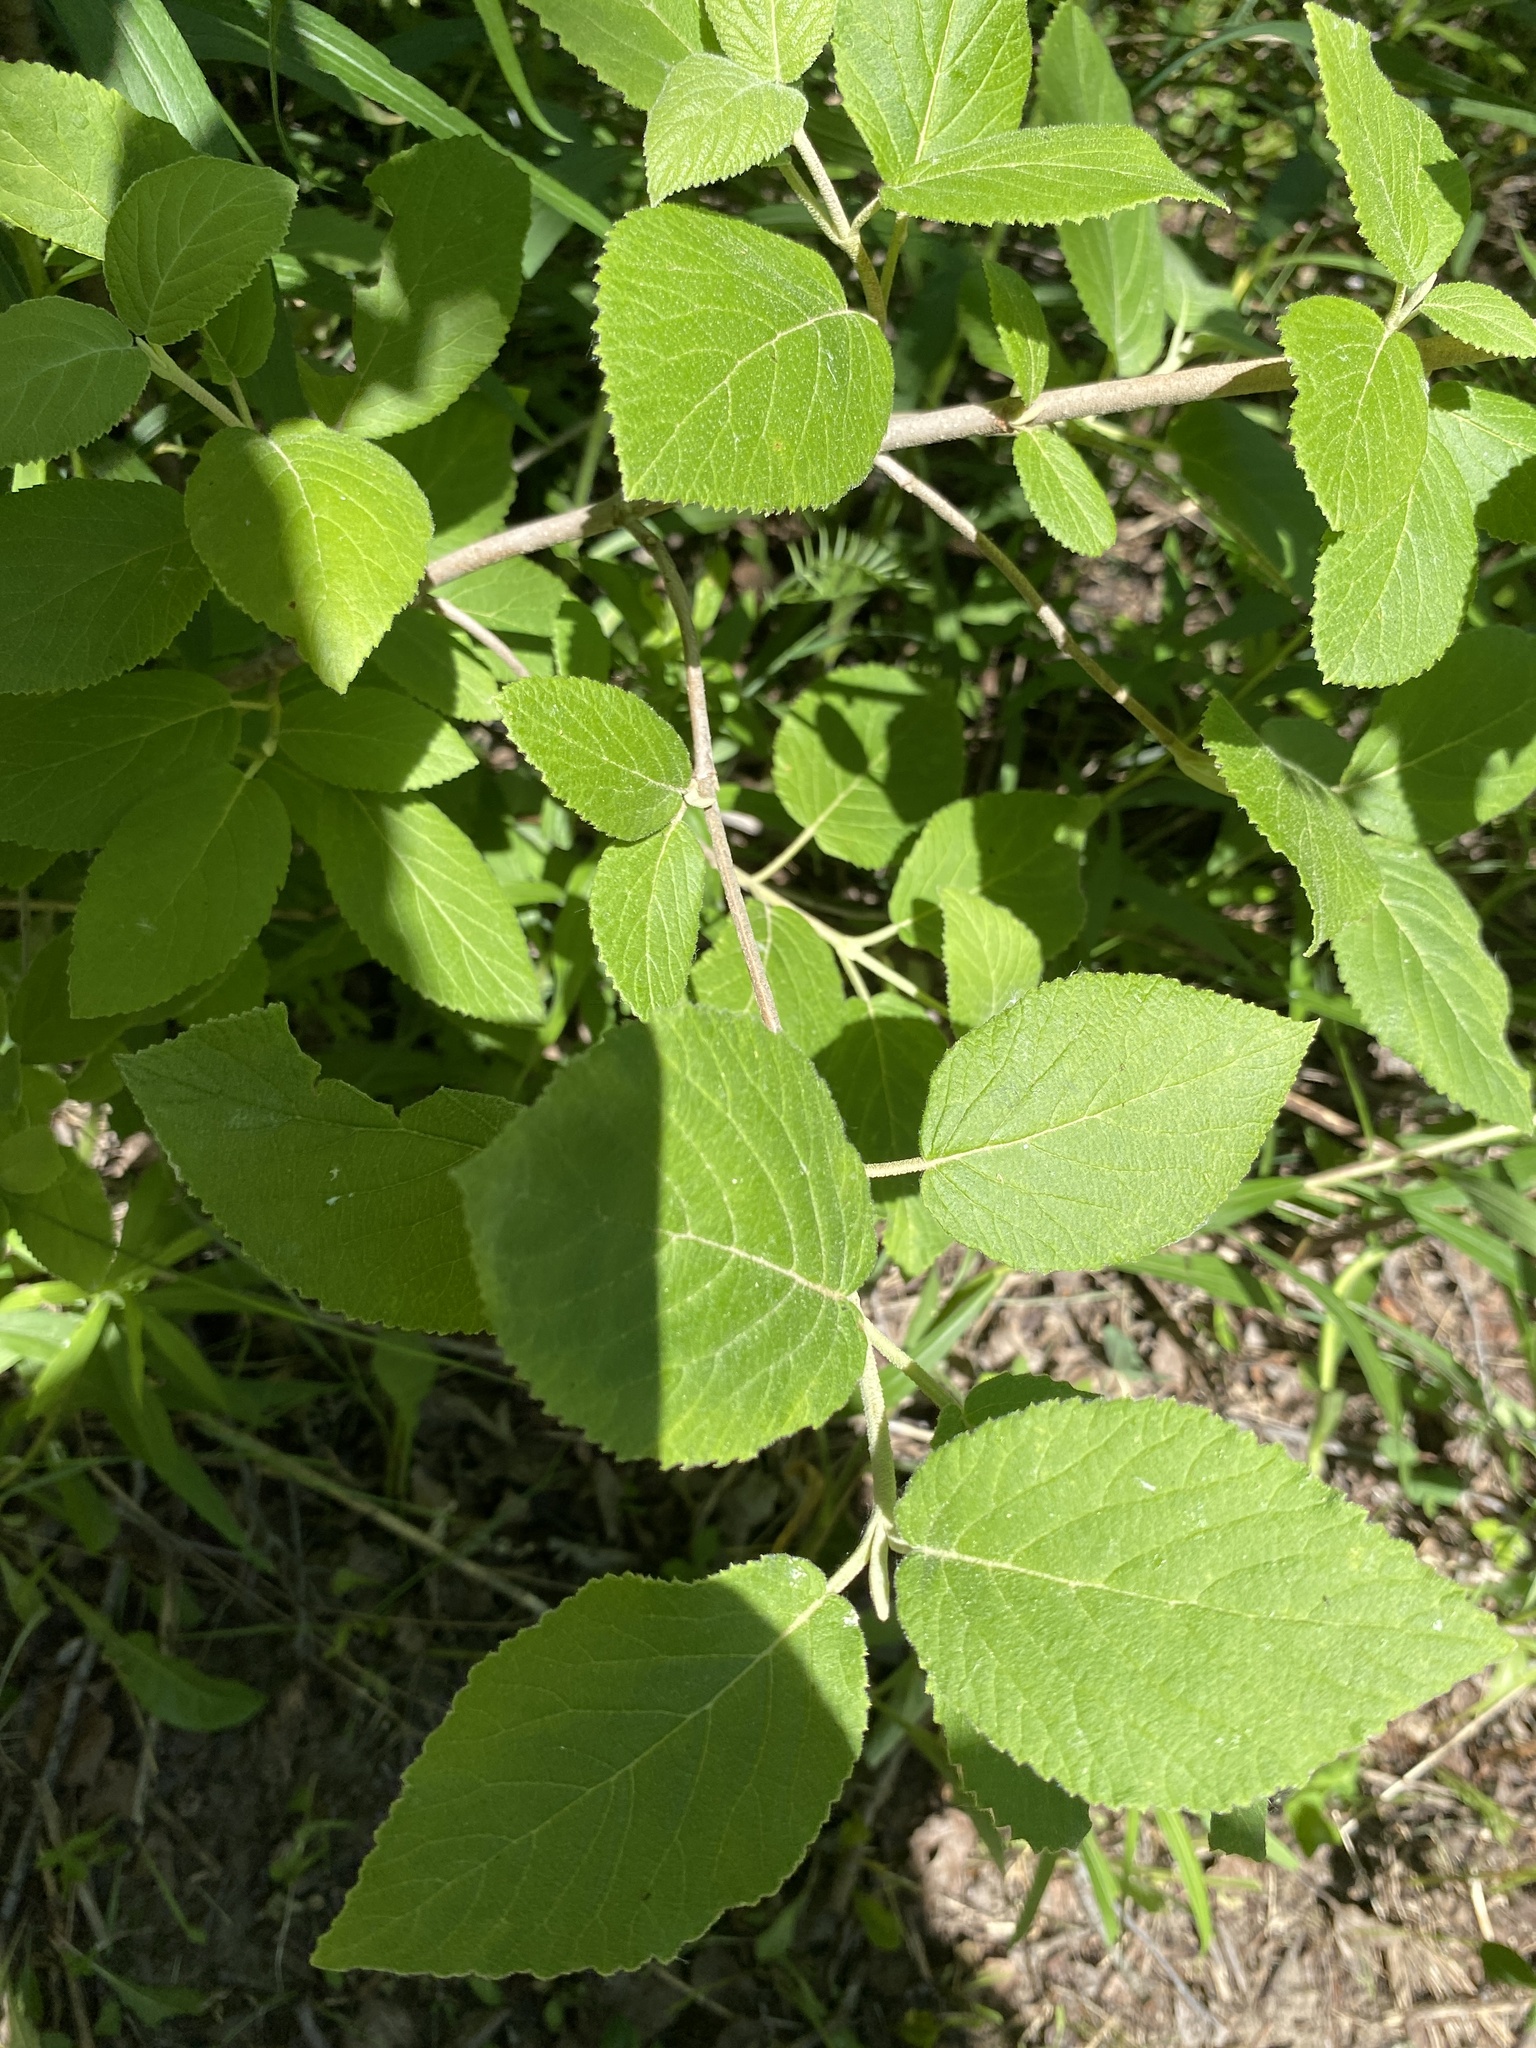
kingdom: Plantae
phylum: Tracheophyta
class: Magnoliopsida
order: Dipsacales
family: Viburnaceae
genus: Viburnum
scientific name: Viburnum lantana
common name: Wayfaring tree
